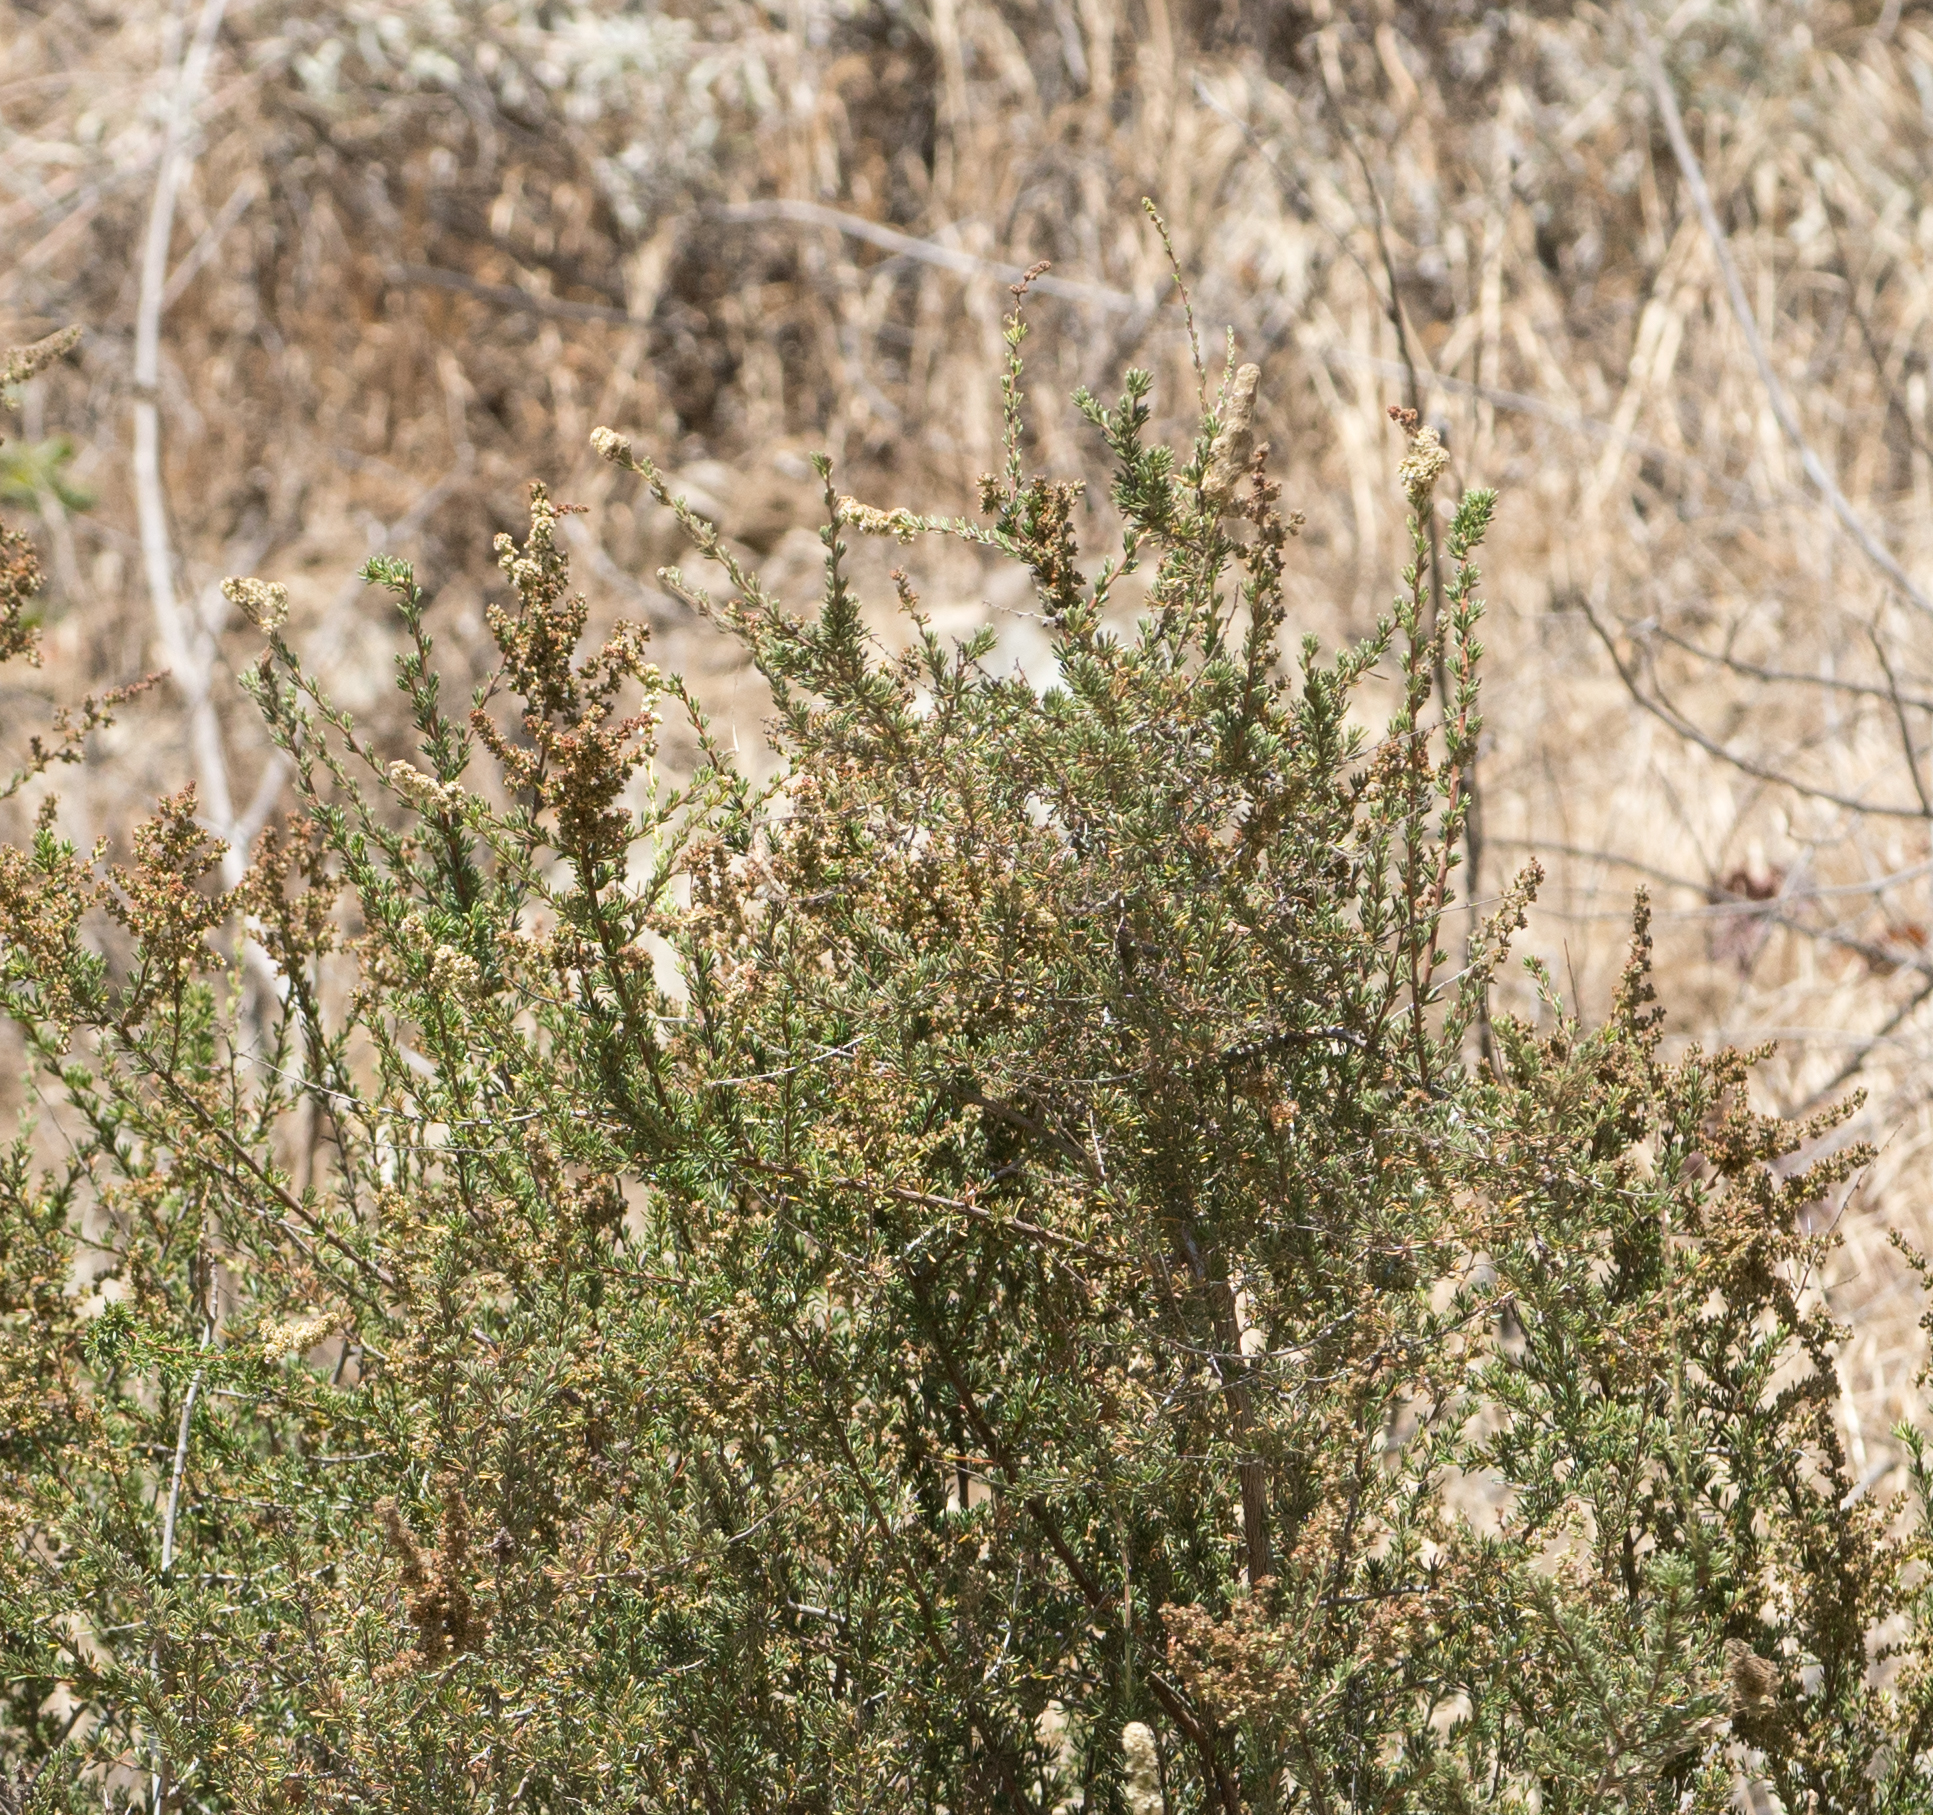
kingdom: Plantae
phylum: Tracheophyta
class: Magnoliopsida
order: Rosales
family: Rosaceae
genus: Adenostoma
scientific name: Adenostoma fasciculatum
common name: Chamise
